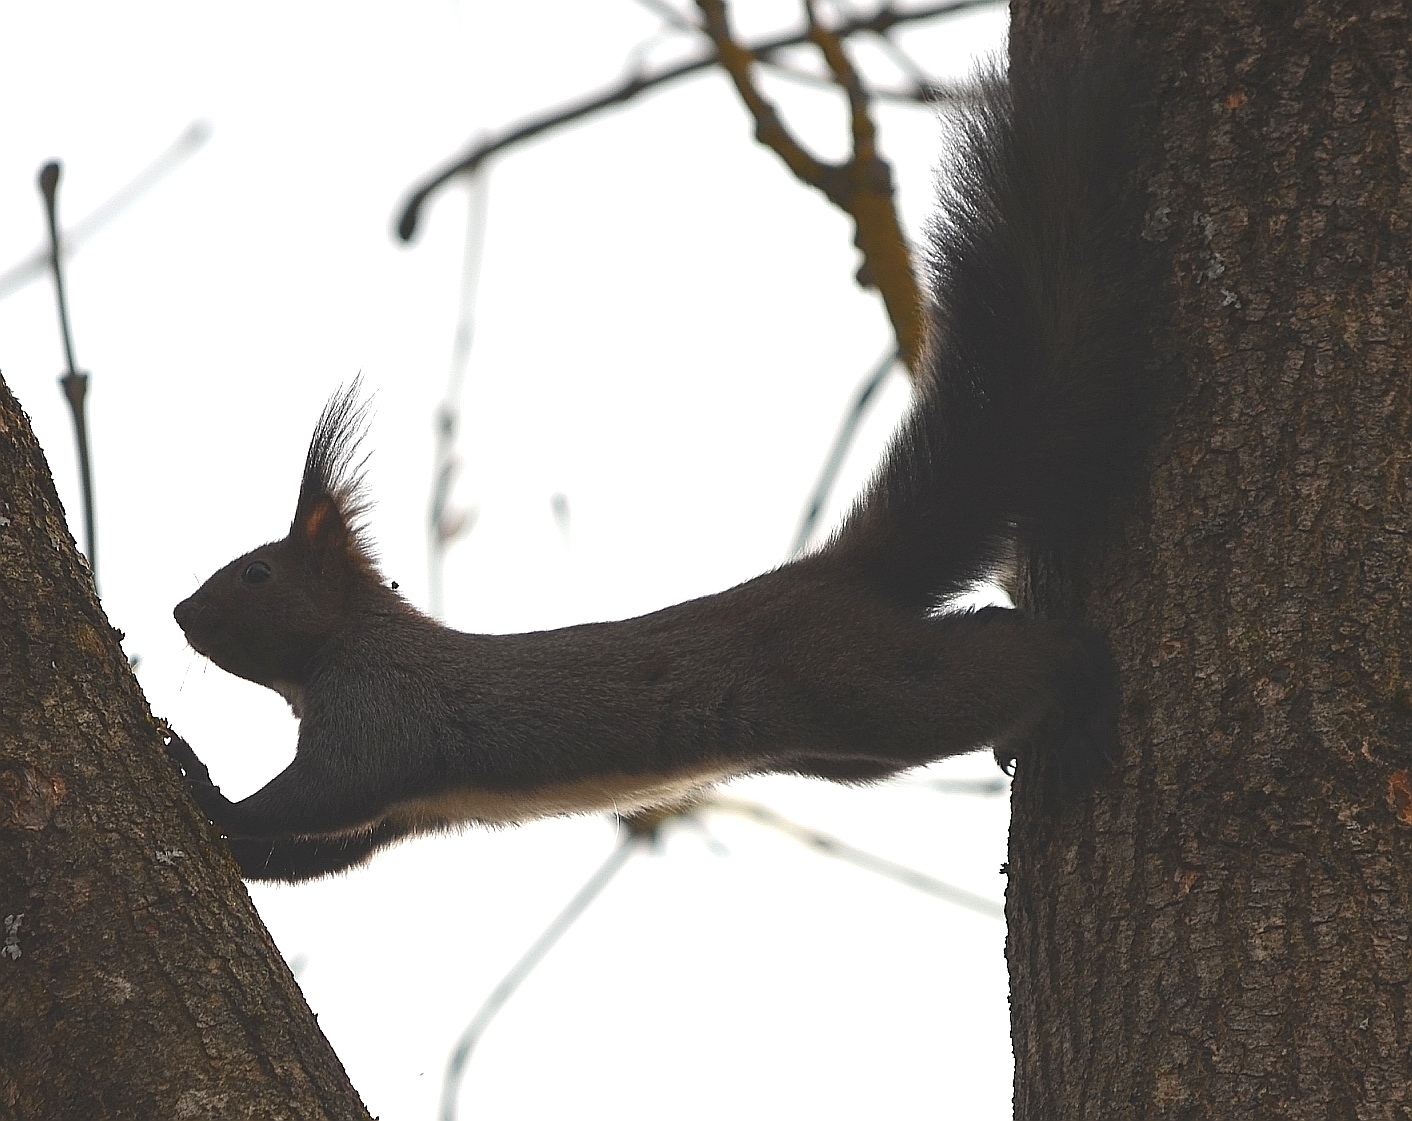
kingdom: Animalia
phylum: Chordata
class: Mammalia
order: Rodentia
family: Sciuridae
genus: Sciurus
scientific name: Sciurus vulgaris
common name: Eurasian red squirrel
